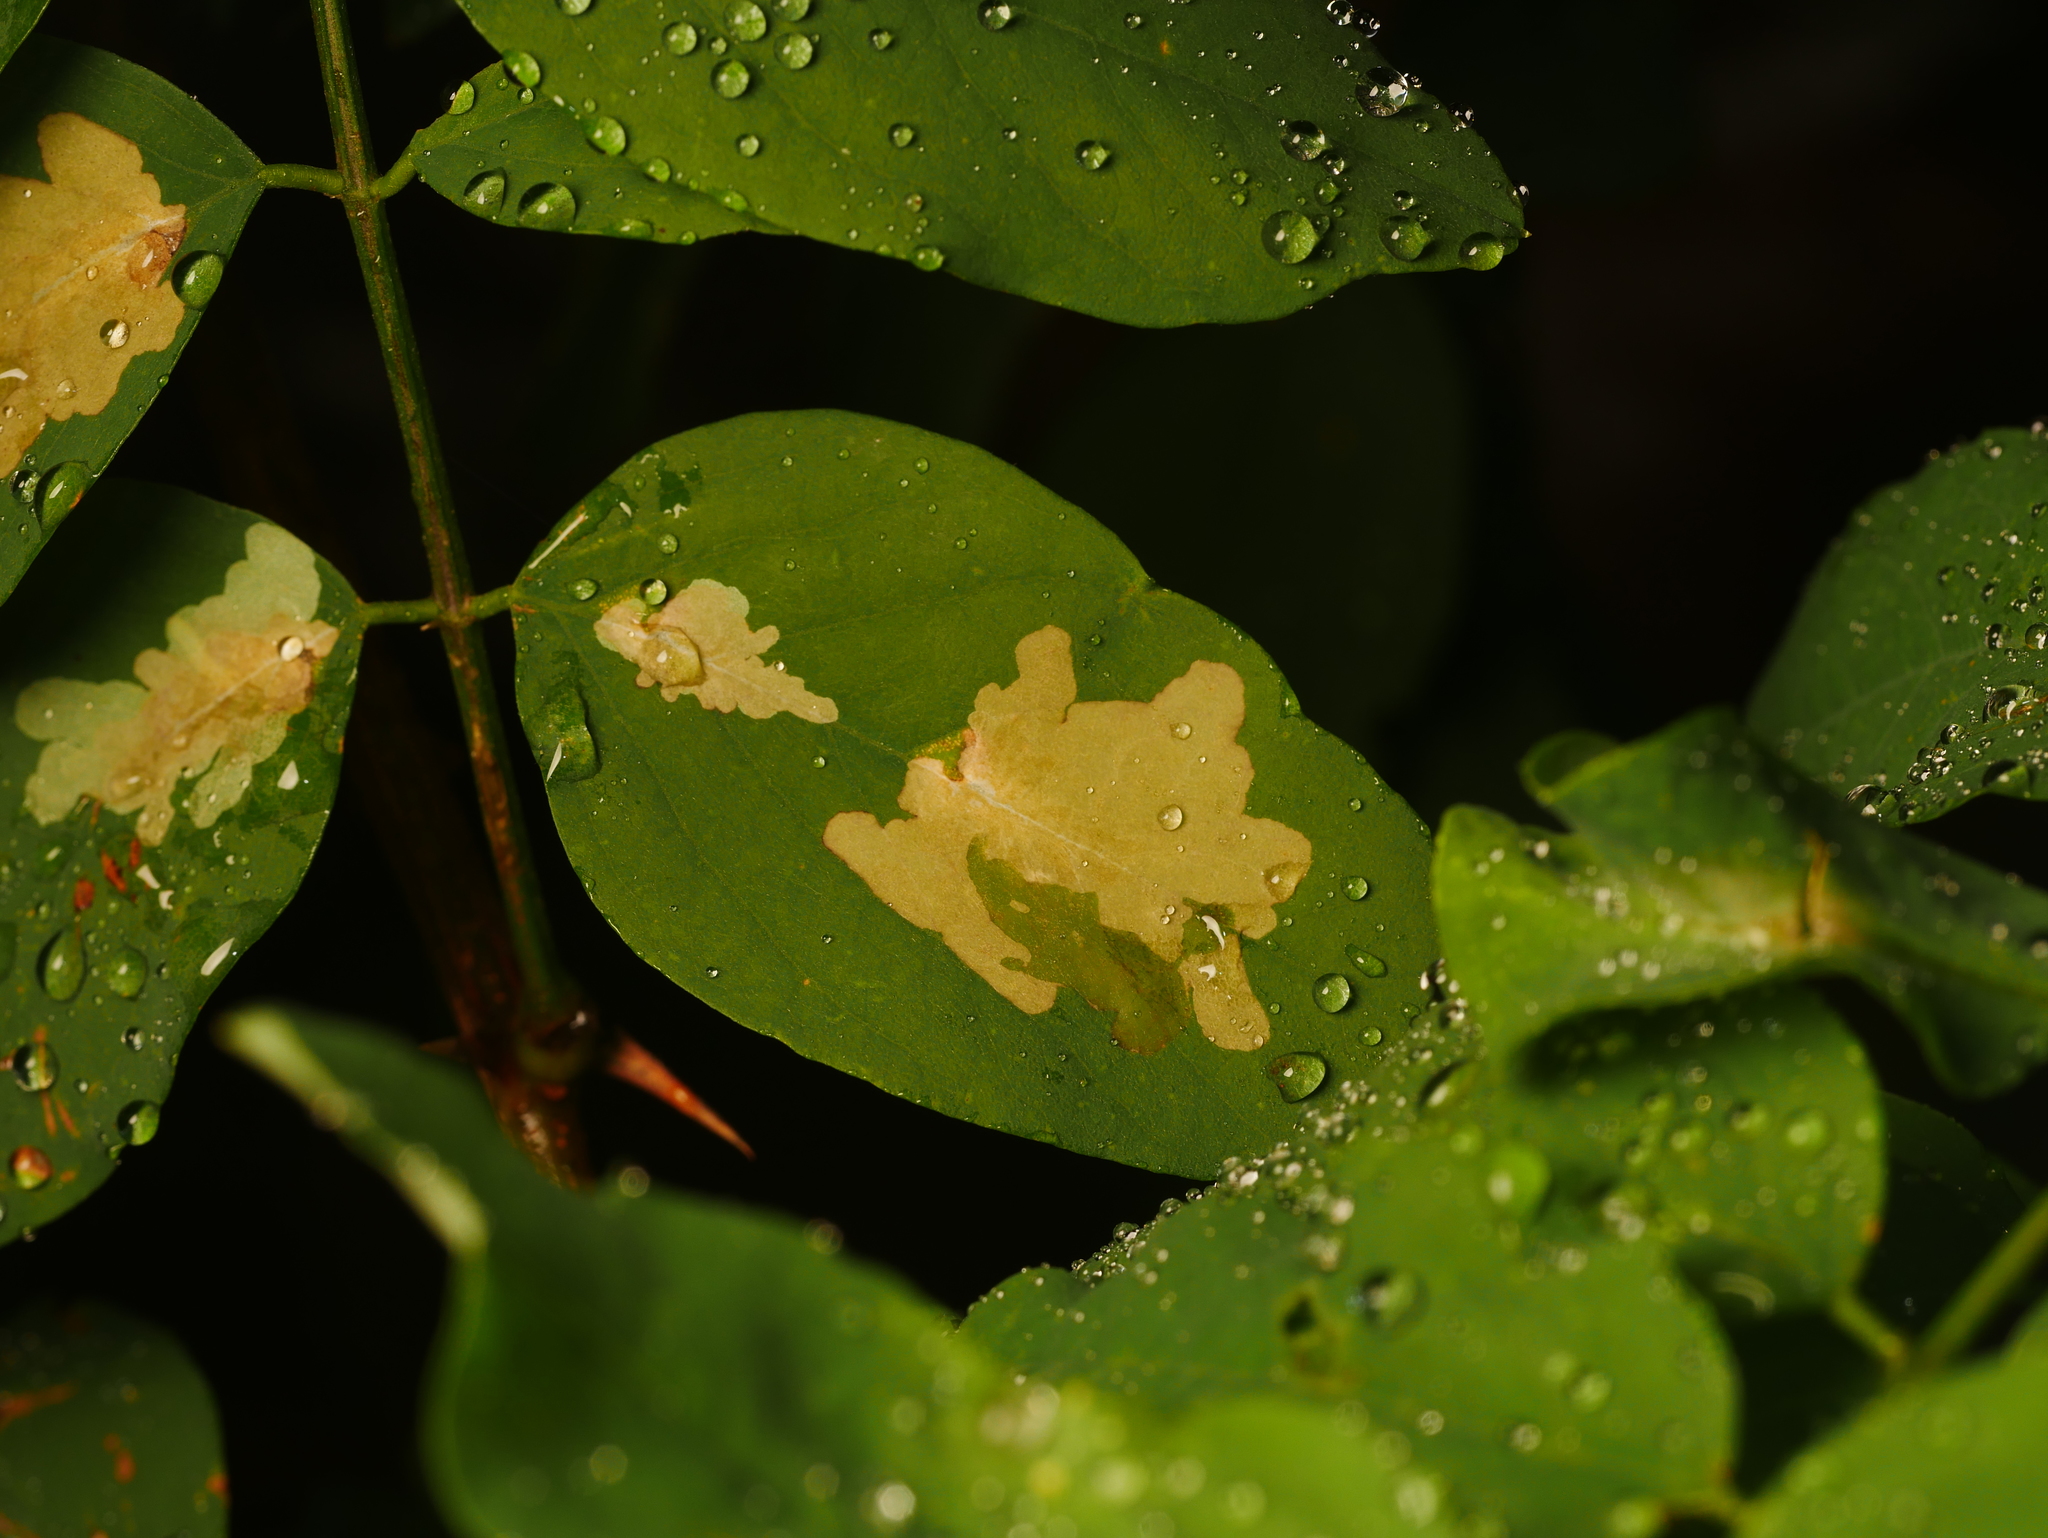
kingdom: Animalia
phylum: Arthropoda
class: Insecta
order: Lepidoptera
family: Gracillariidae
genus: Parectopa
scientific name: Parectopa robiniella
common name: Locust digitate leafminer
